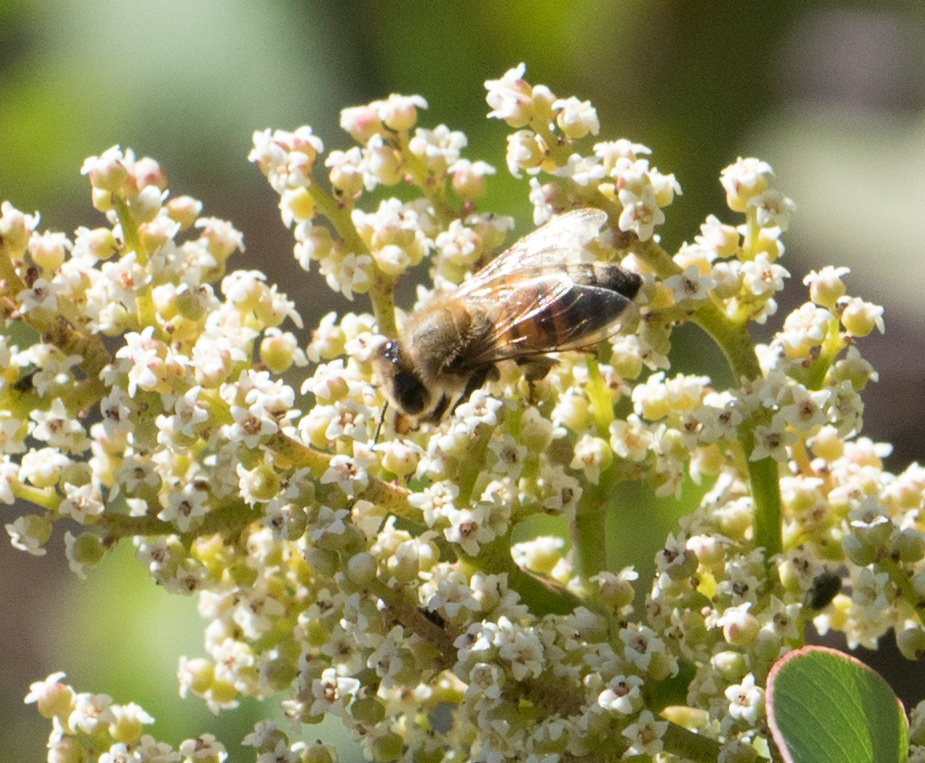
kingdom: Animalia
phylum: Arthropoda
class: Insecta
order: Hymenoptera
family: Apidae
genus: Apis
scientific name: Apis mellifera
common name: Honey bee
